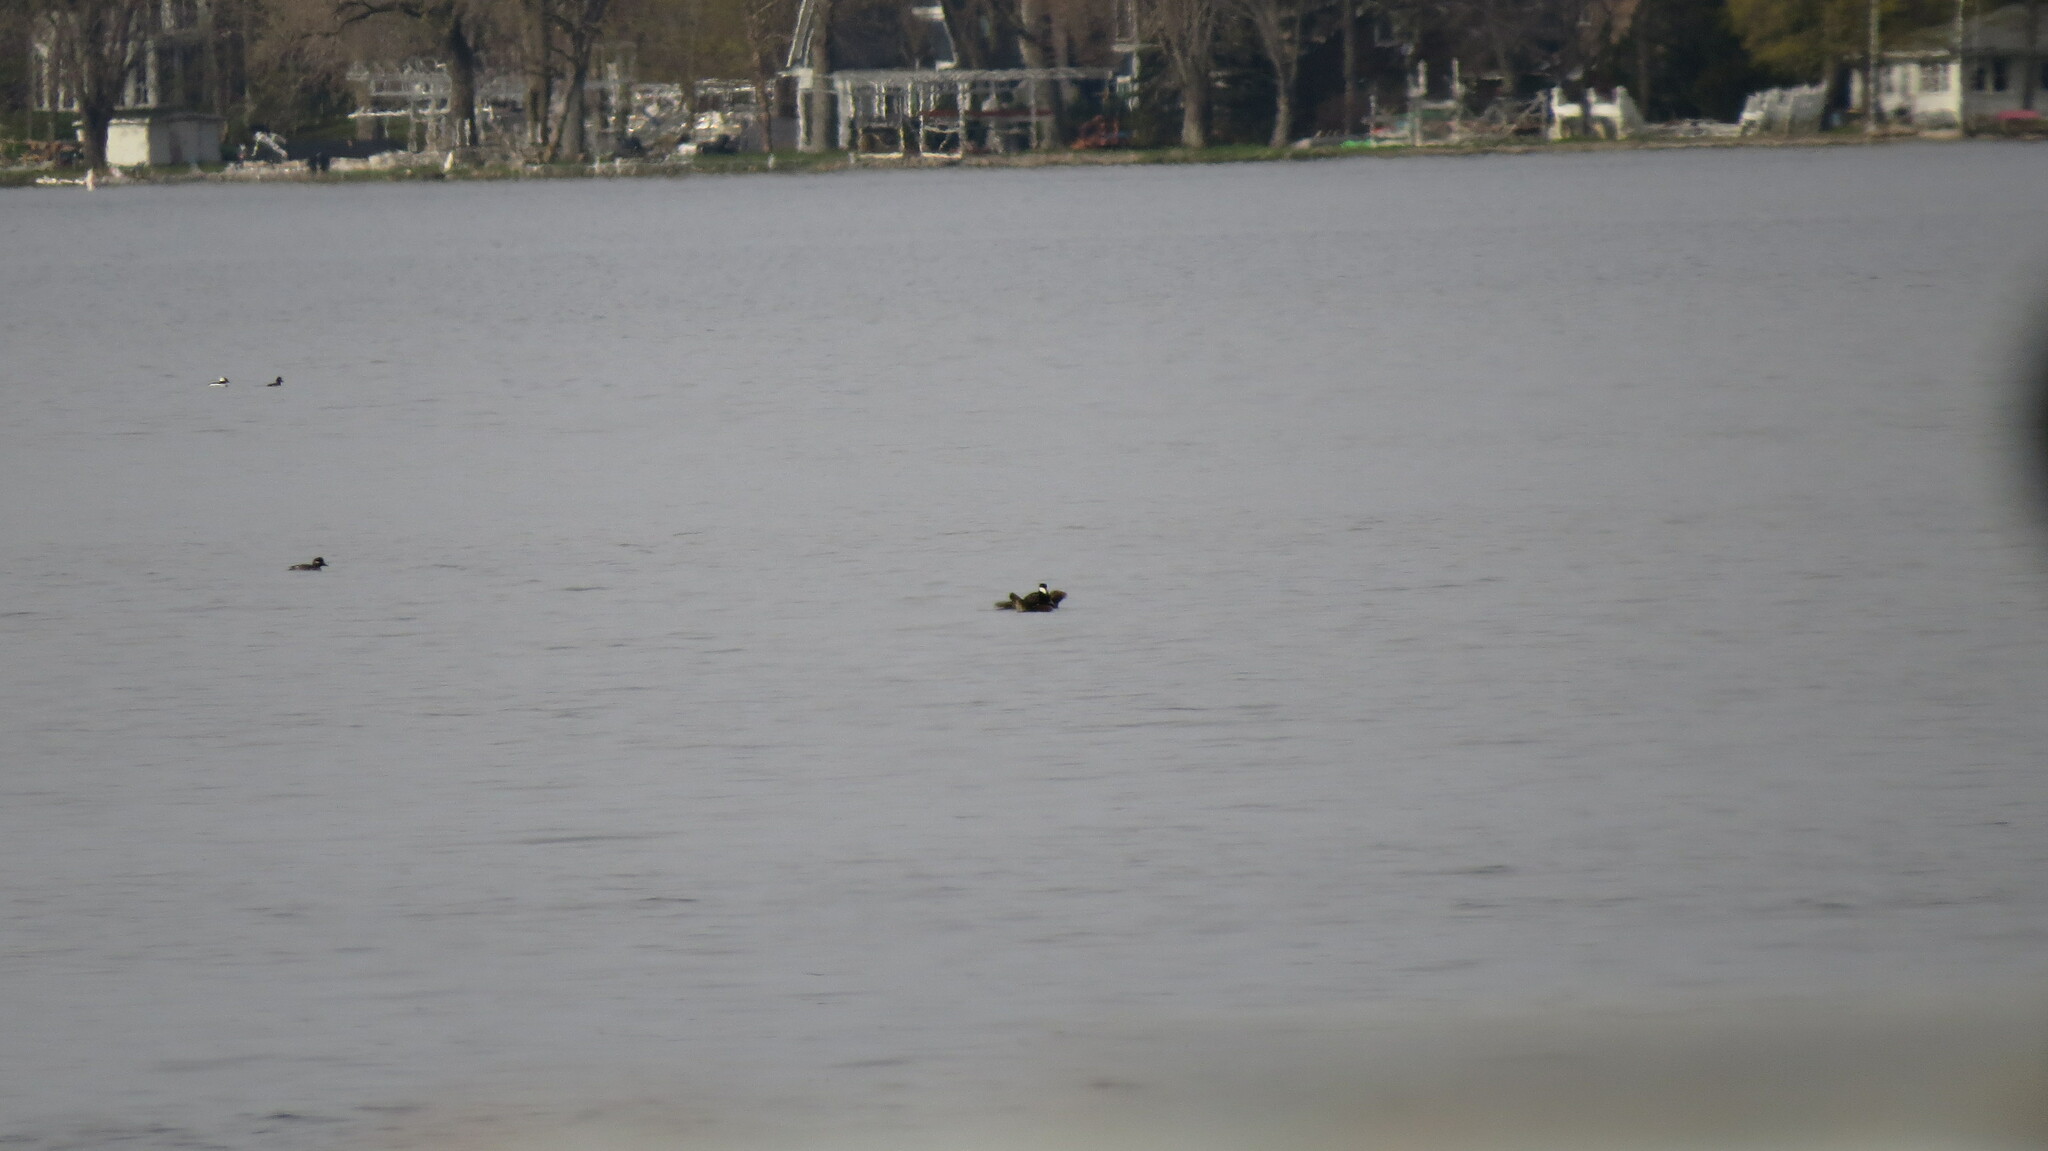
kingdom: Animalia
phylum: Chordata
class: Aves
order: Anseriformes
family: Anatidae
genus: Bucephala
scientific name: Bucephala albeola
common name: Bufflehead
